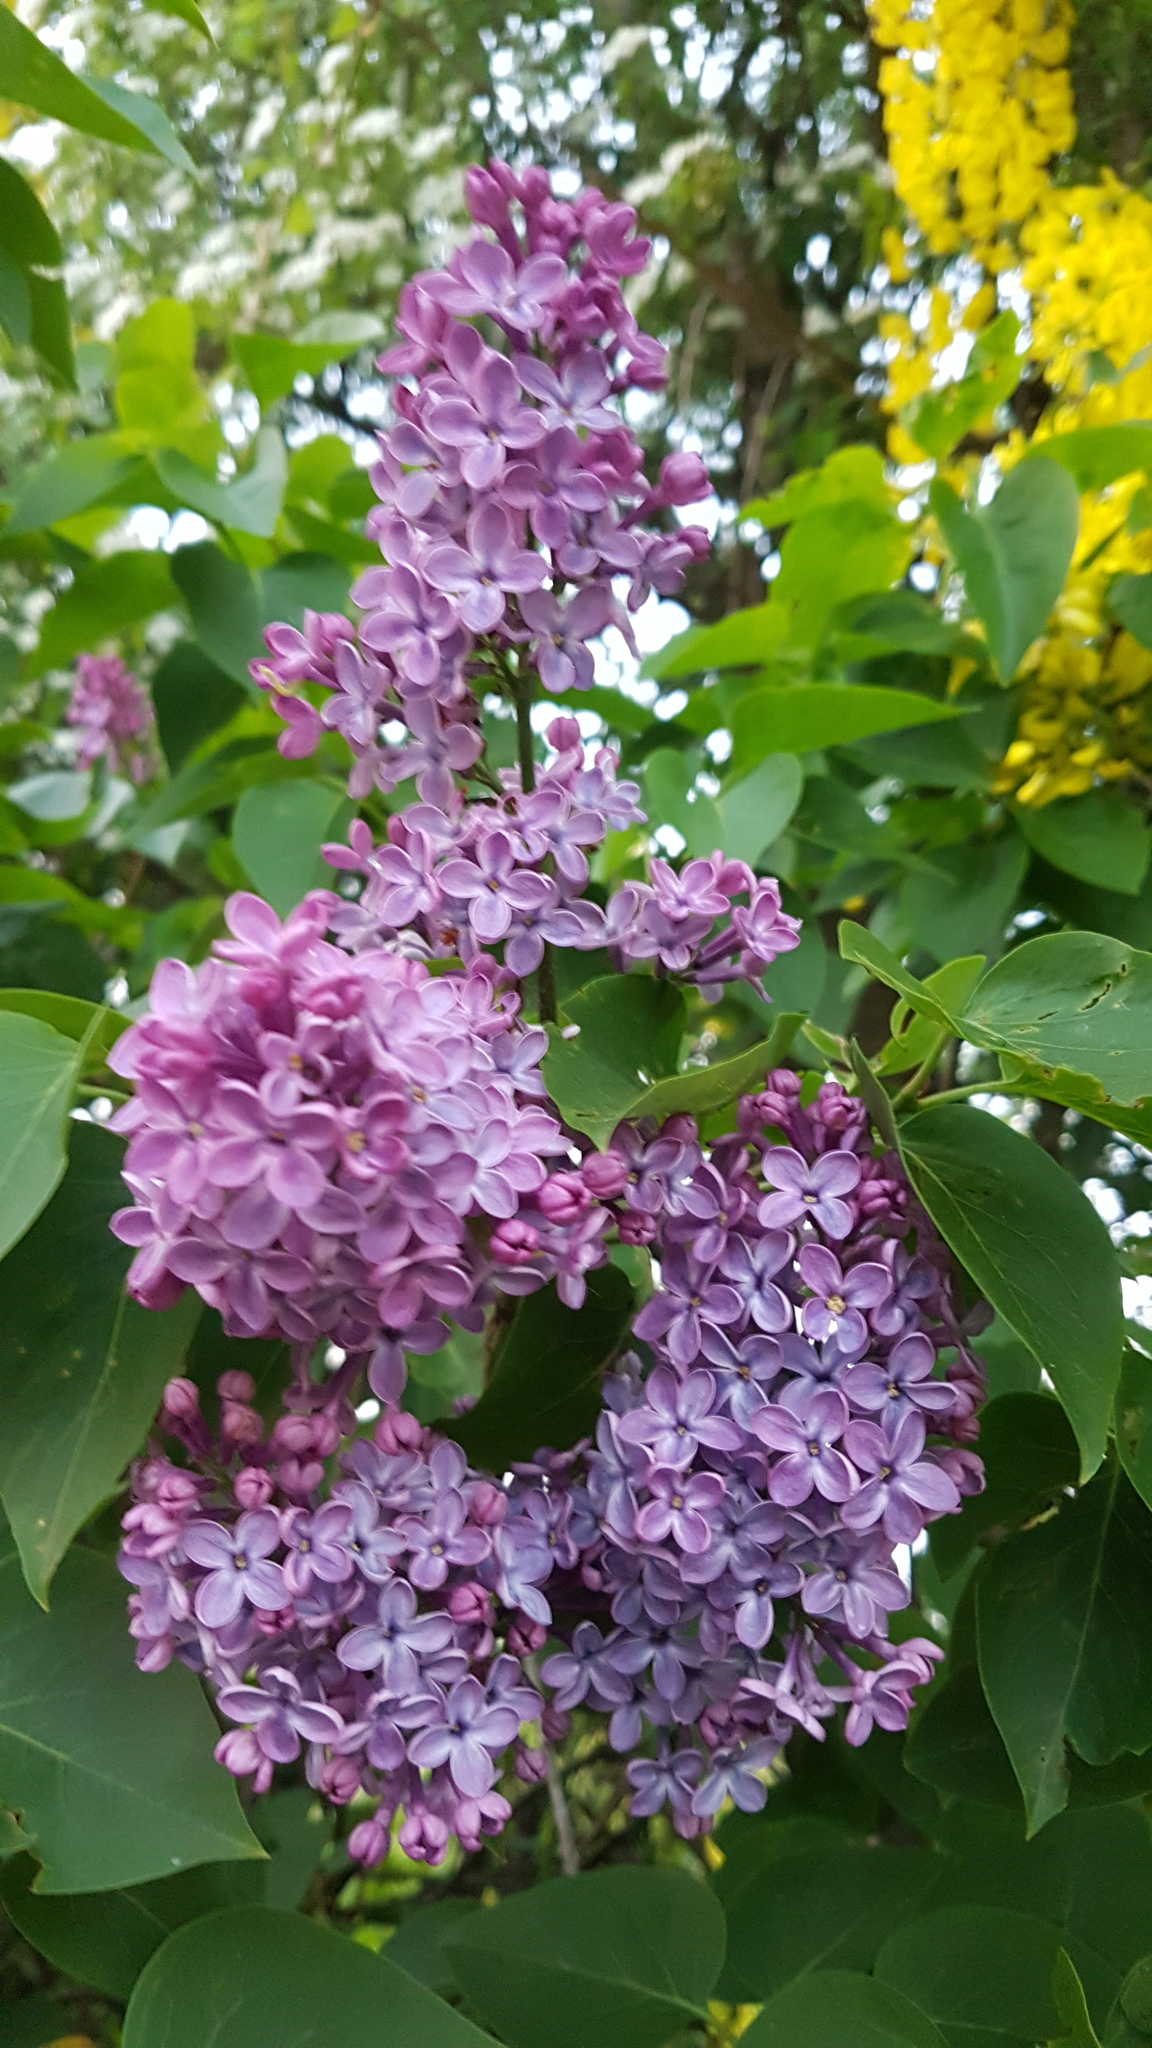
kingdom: Plantae
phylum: Tracheophyta
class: Magnoliopsida
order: Lamiales
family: Oleaceae
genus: Syringa
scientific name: Syringa vulgaris
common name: Common lilac
